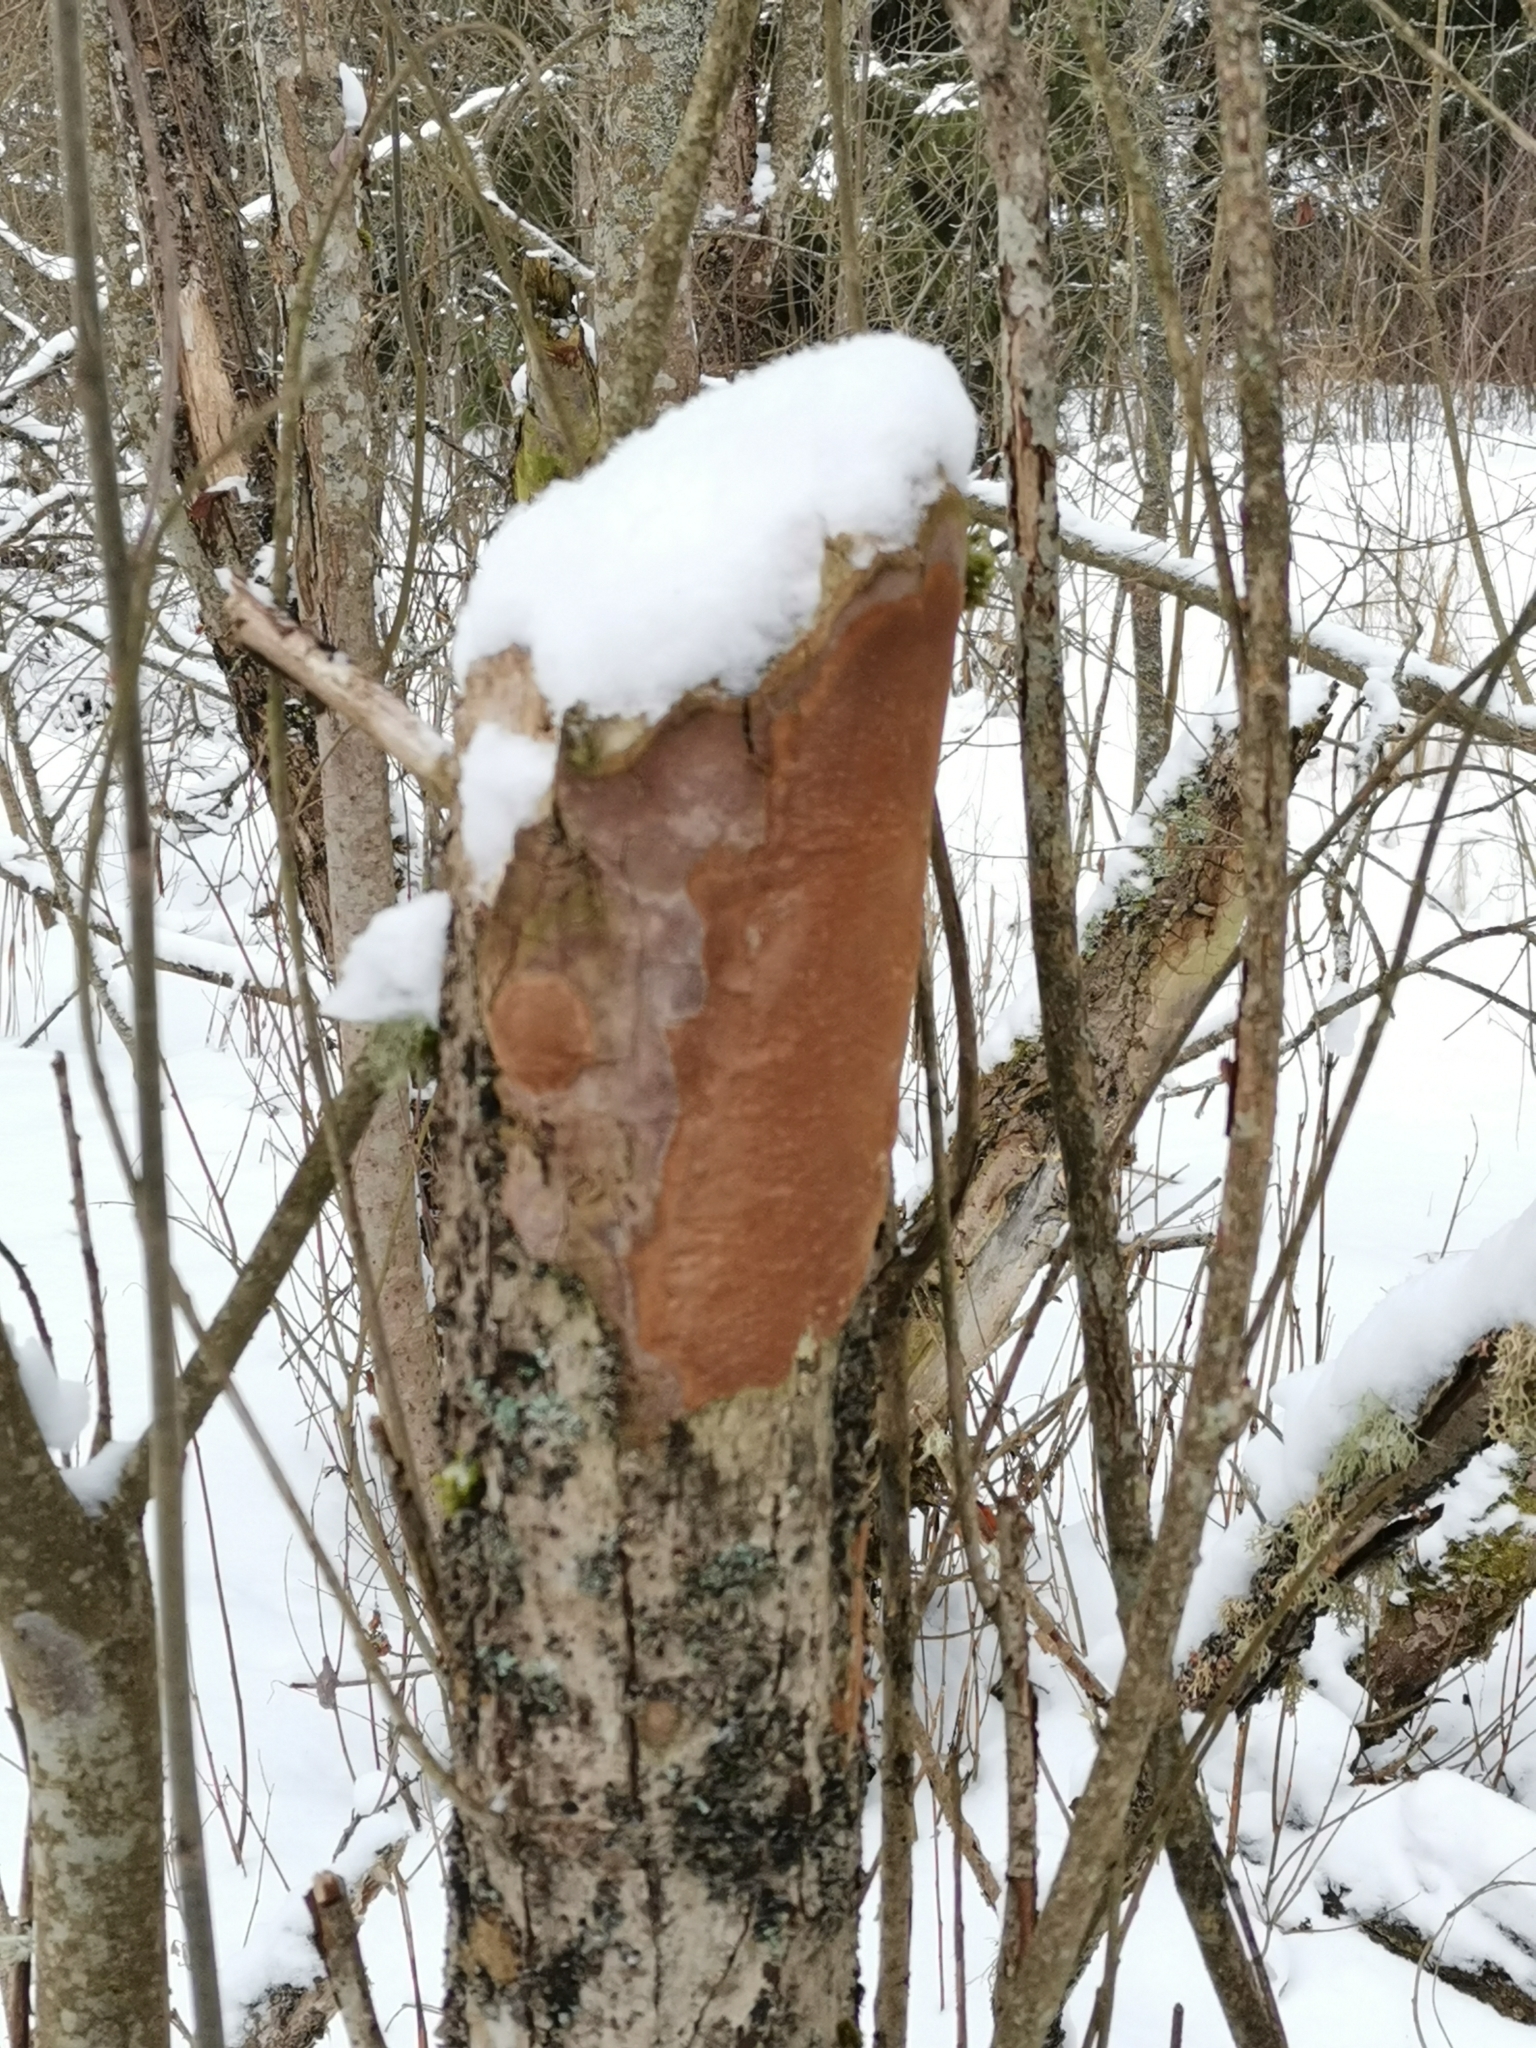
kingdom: Fungi
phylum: Basidiomycota
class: Agaricomycetes
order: Hymenochaetales
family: Hymenochaetaceae
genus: Fomitiporia
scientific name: Fomitiporia punctata
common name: Elbowpatch crust
